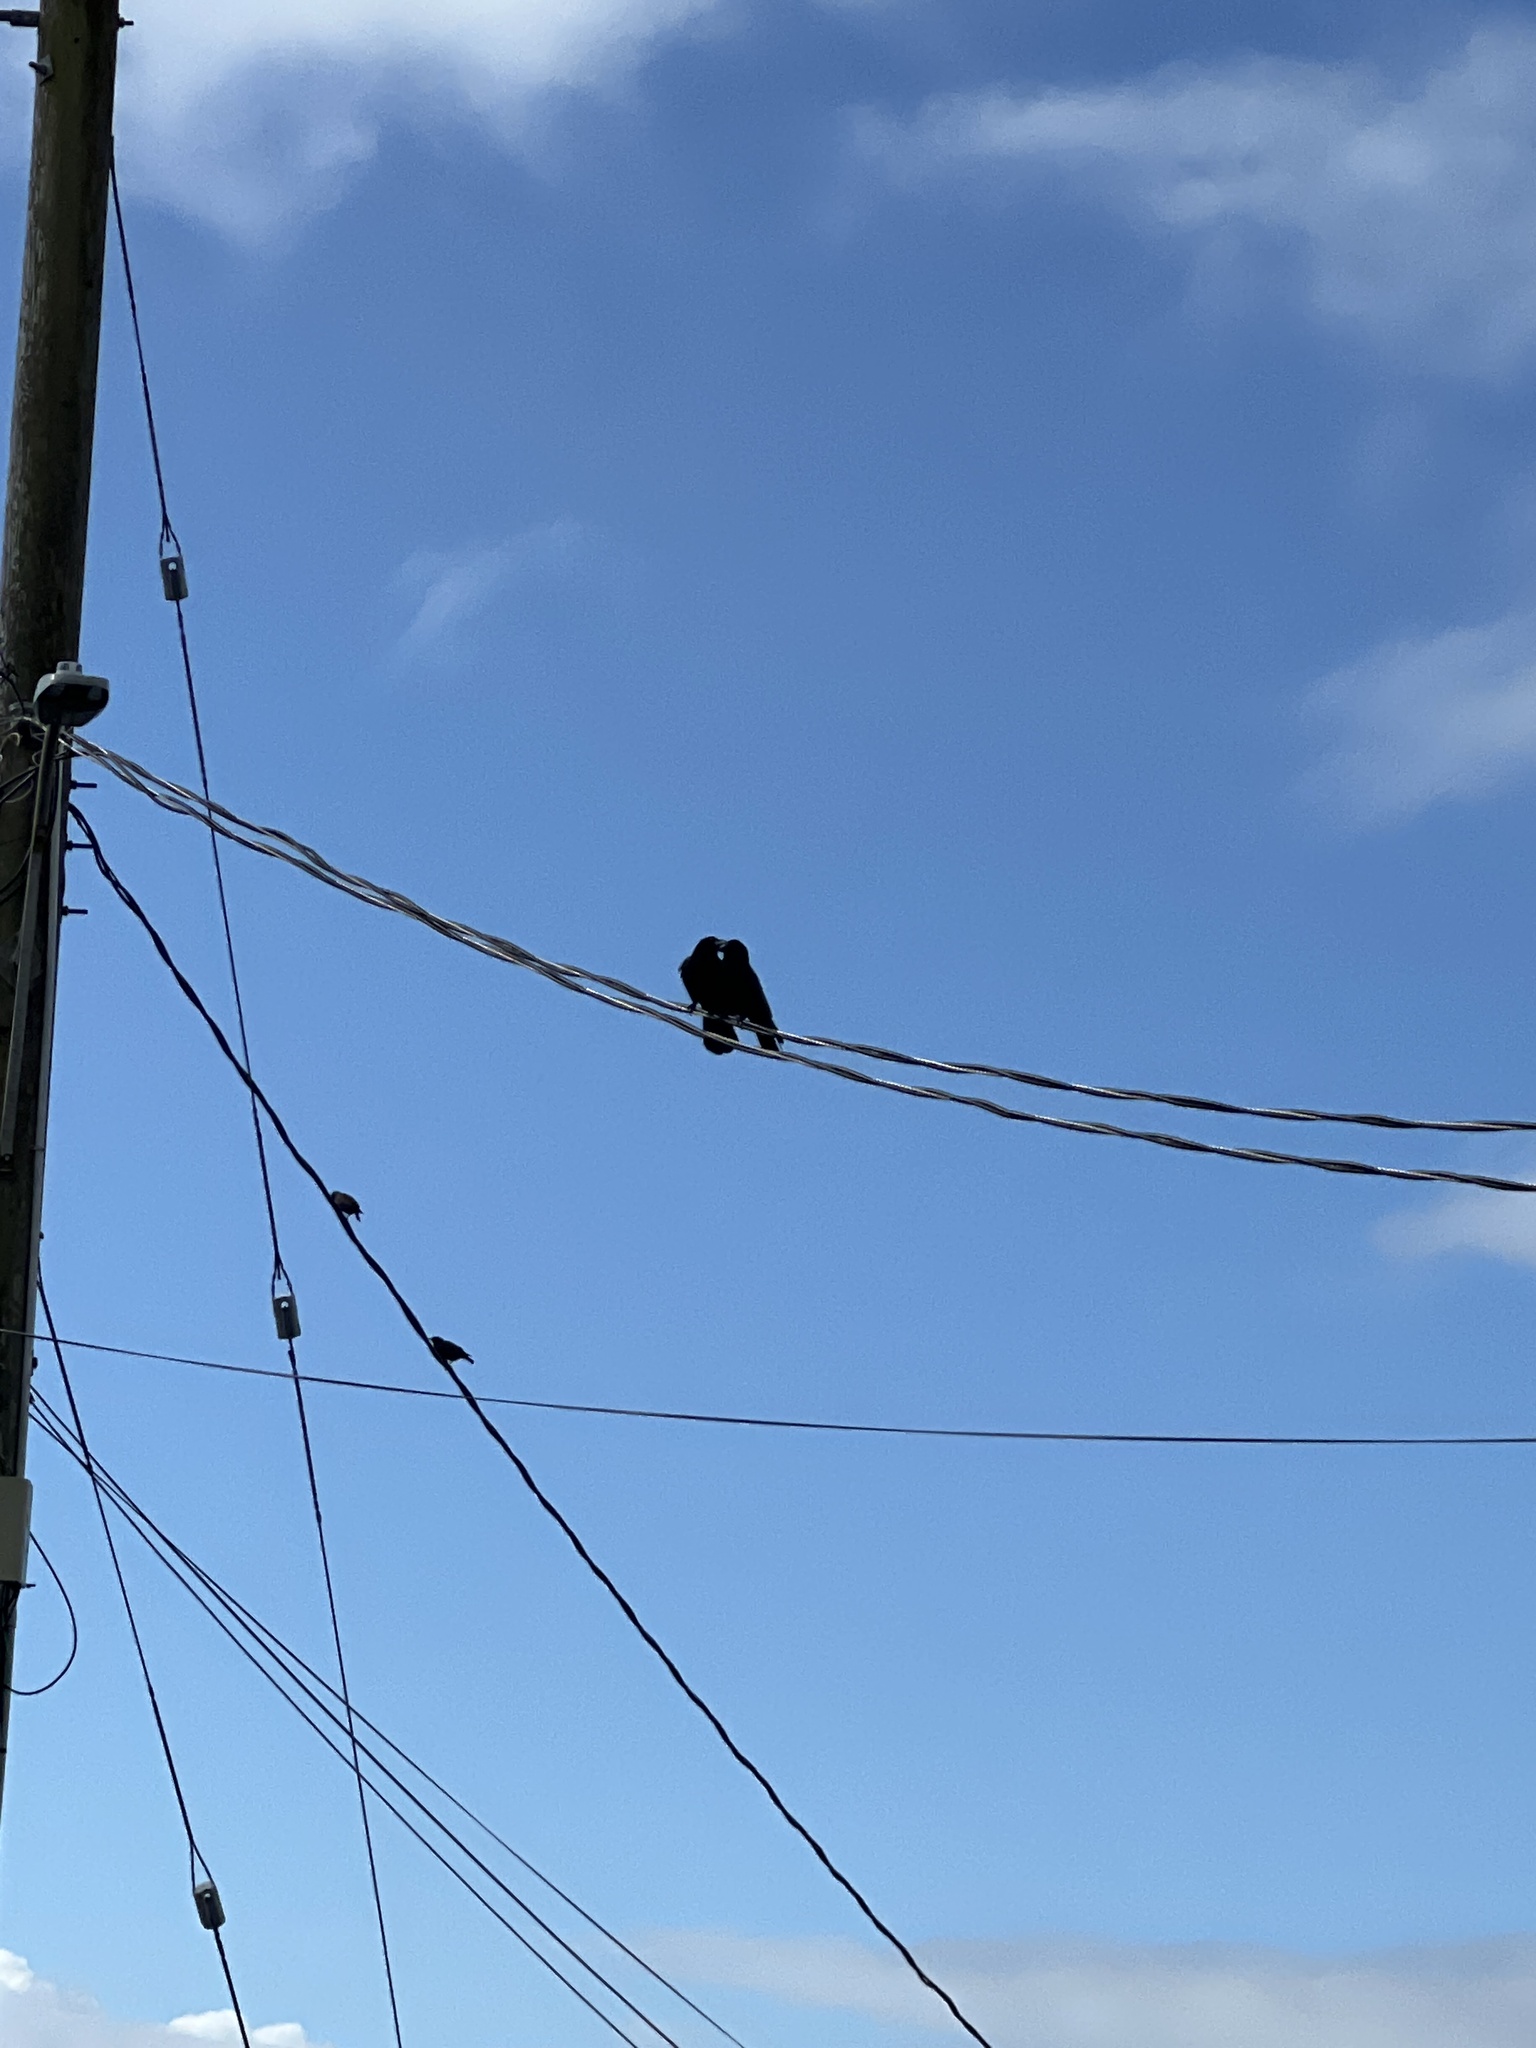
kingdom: Animalia
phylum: Chordata
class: Aves
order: Passeriformes
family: Corvidae
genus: Corvus
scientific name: Corvus brachyrhynchos
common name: American crow
